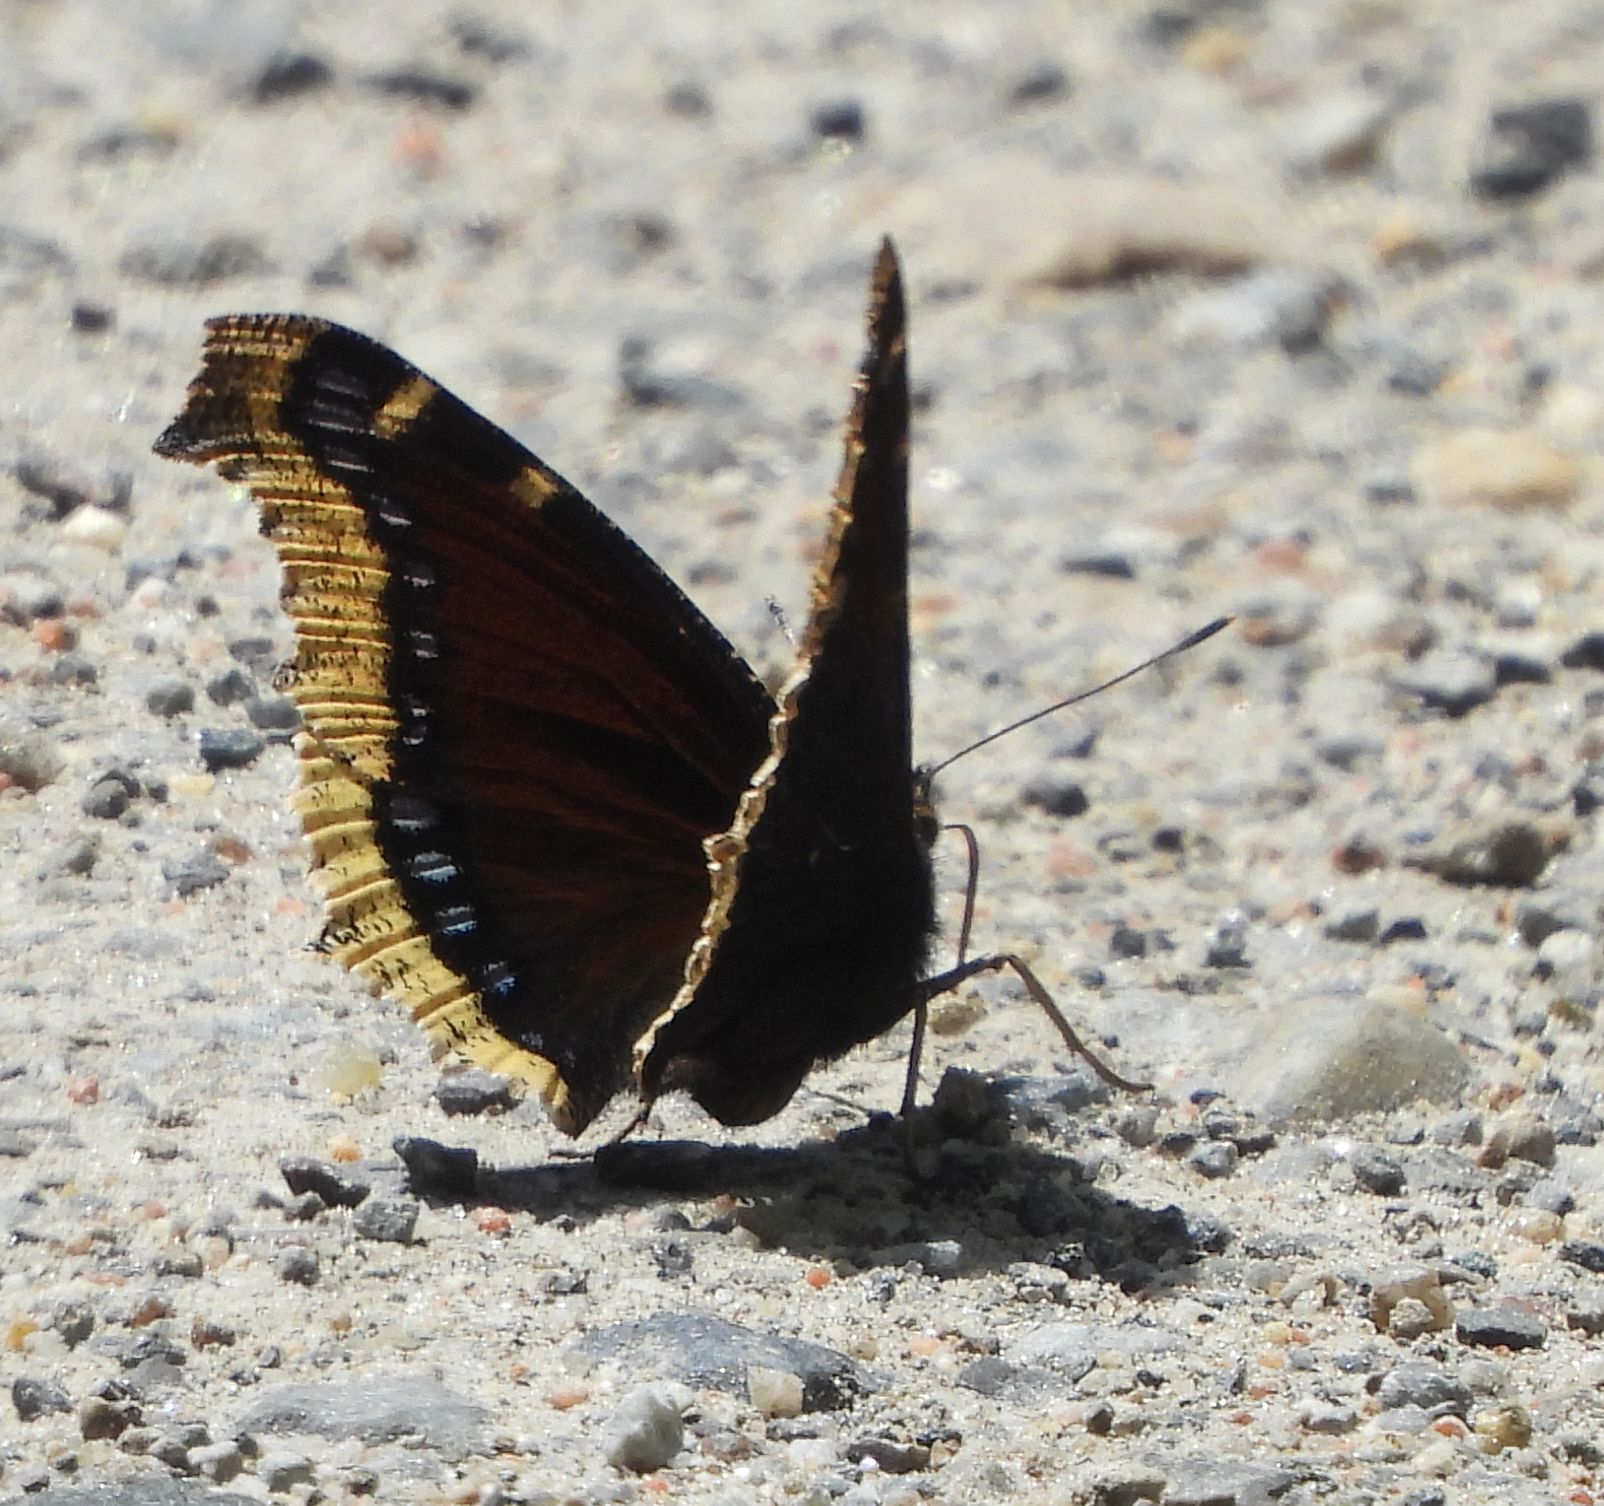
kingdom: Animalia
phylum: Arthropoda
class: Insecta
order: Lepidoptera
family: Nymphalidae
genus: Nymphalis
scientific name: Nymphalis antiopa
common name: Camberwell beauty
